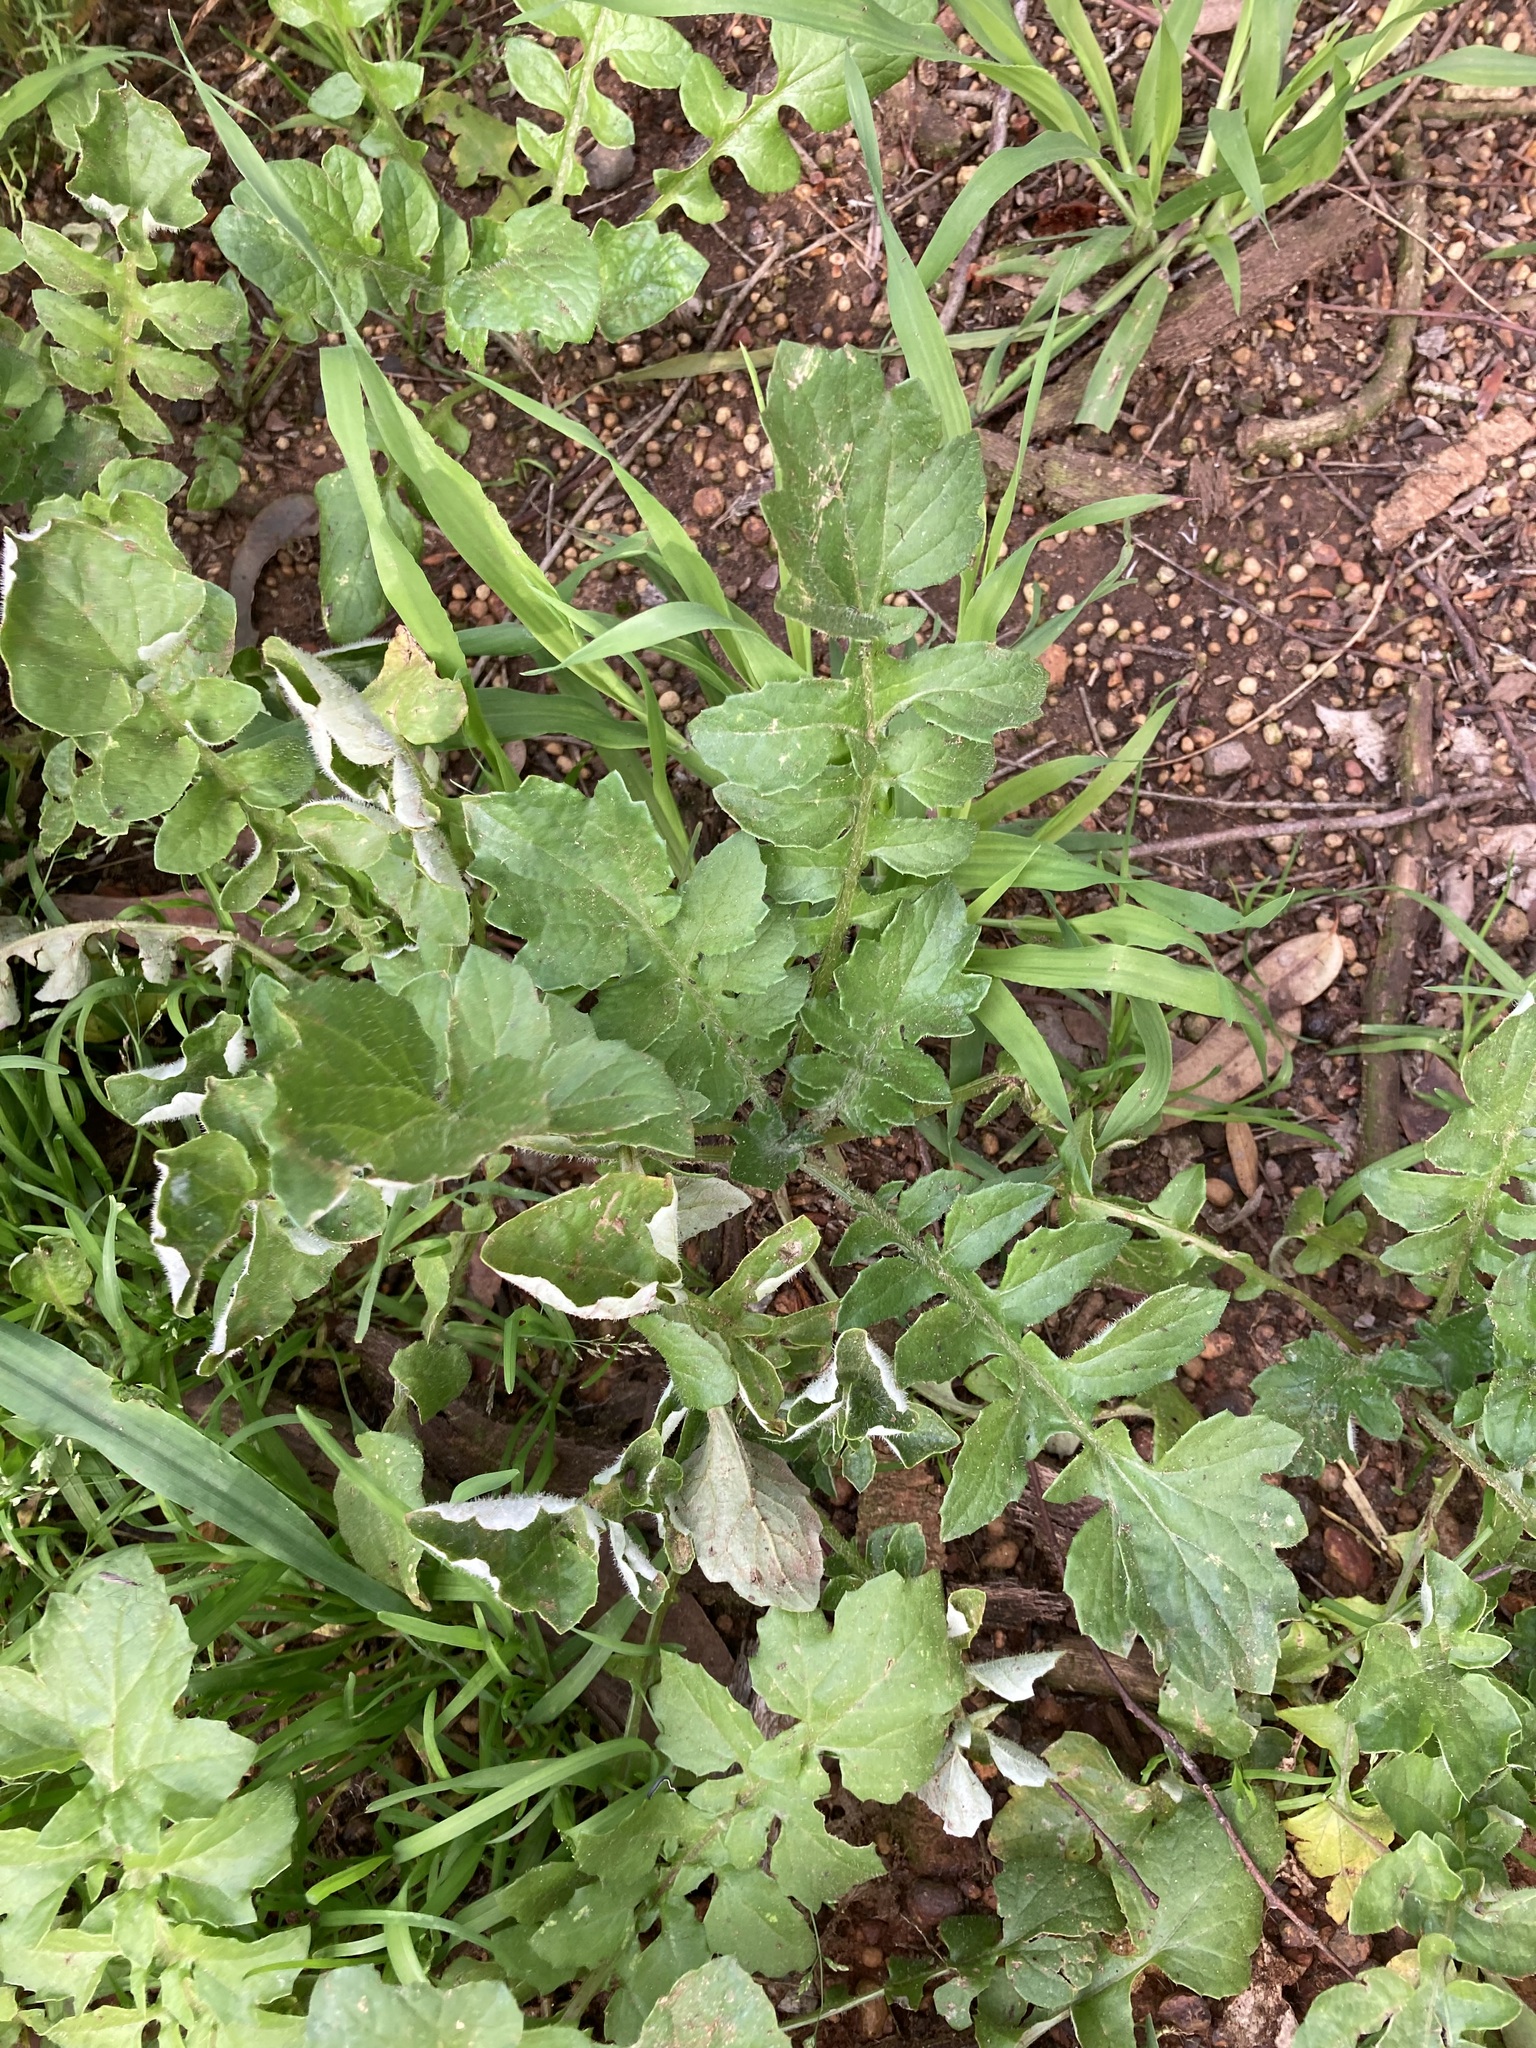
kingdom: Plantae
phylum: Tracheophyta
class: Magnoliopsida
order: Asterales
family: Asteraceae
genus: Arctotheca
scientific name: Arctotheca calendula
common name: Capeweed
